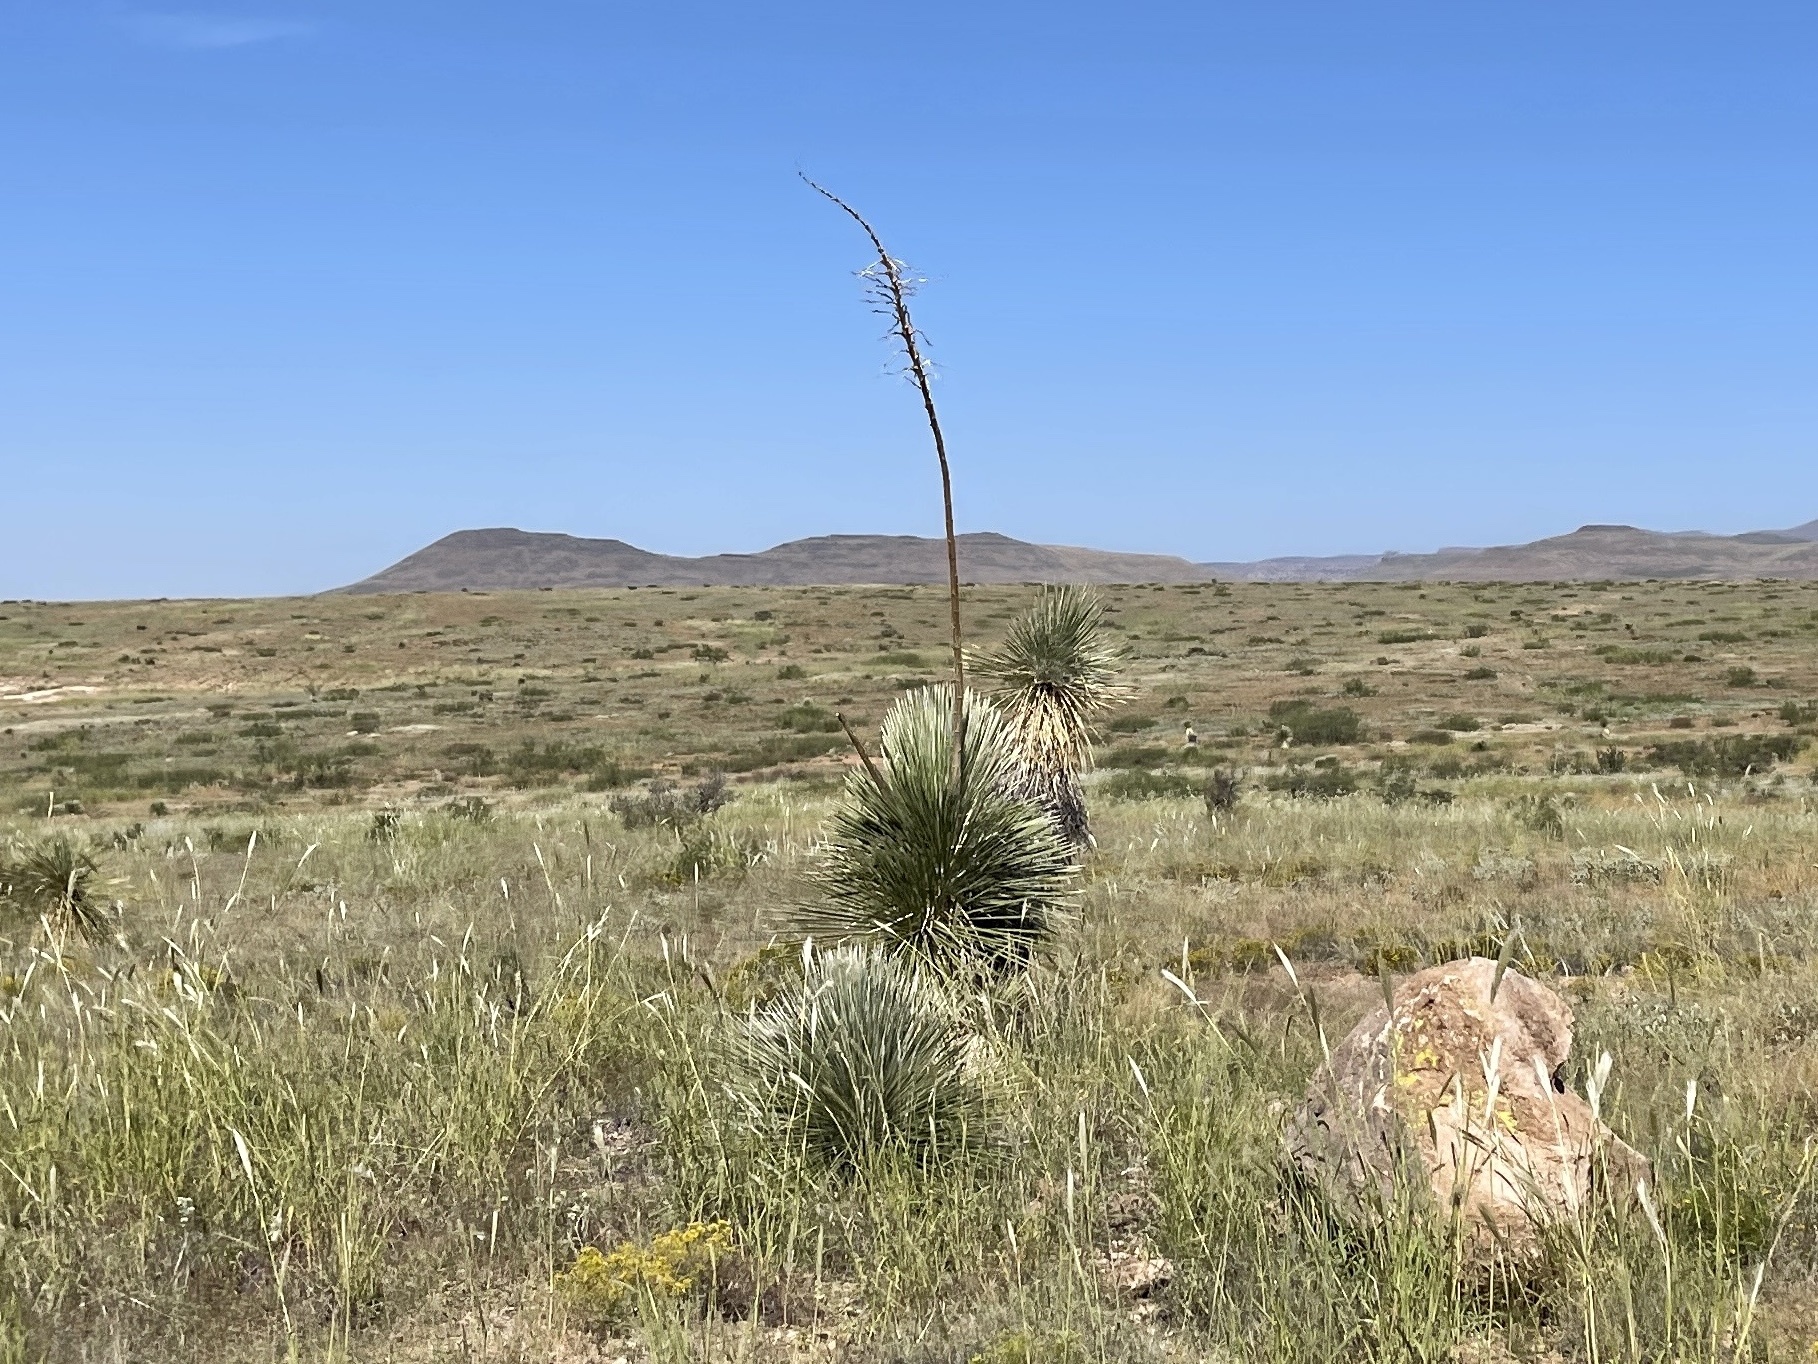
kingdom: Plantae
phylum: Tracheophyta
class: Liliopsida
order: Asparagales
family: Asparagaceae
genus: Yucca
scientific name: Yucca elata
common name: Palmella
